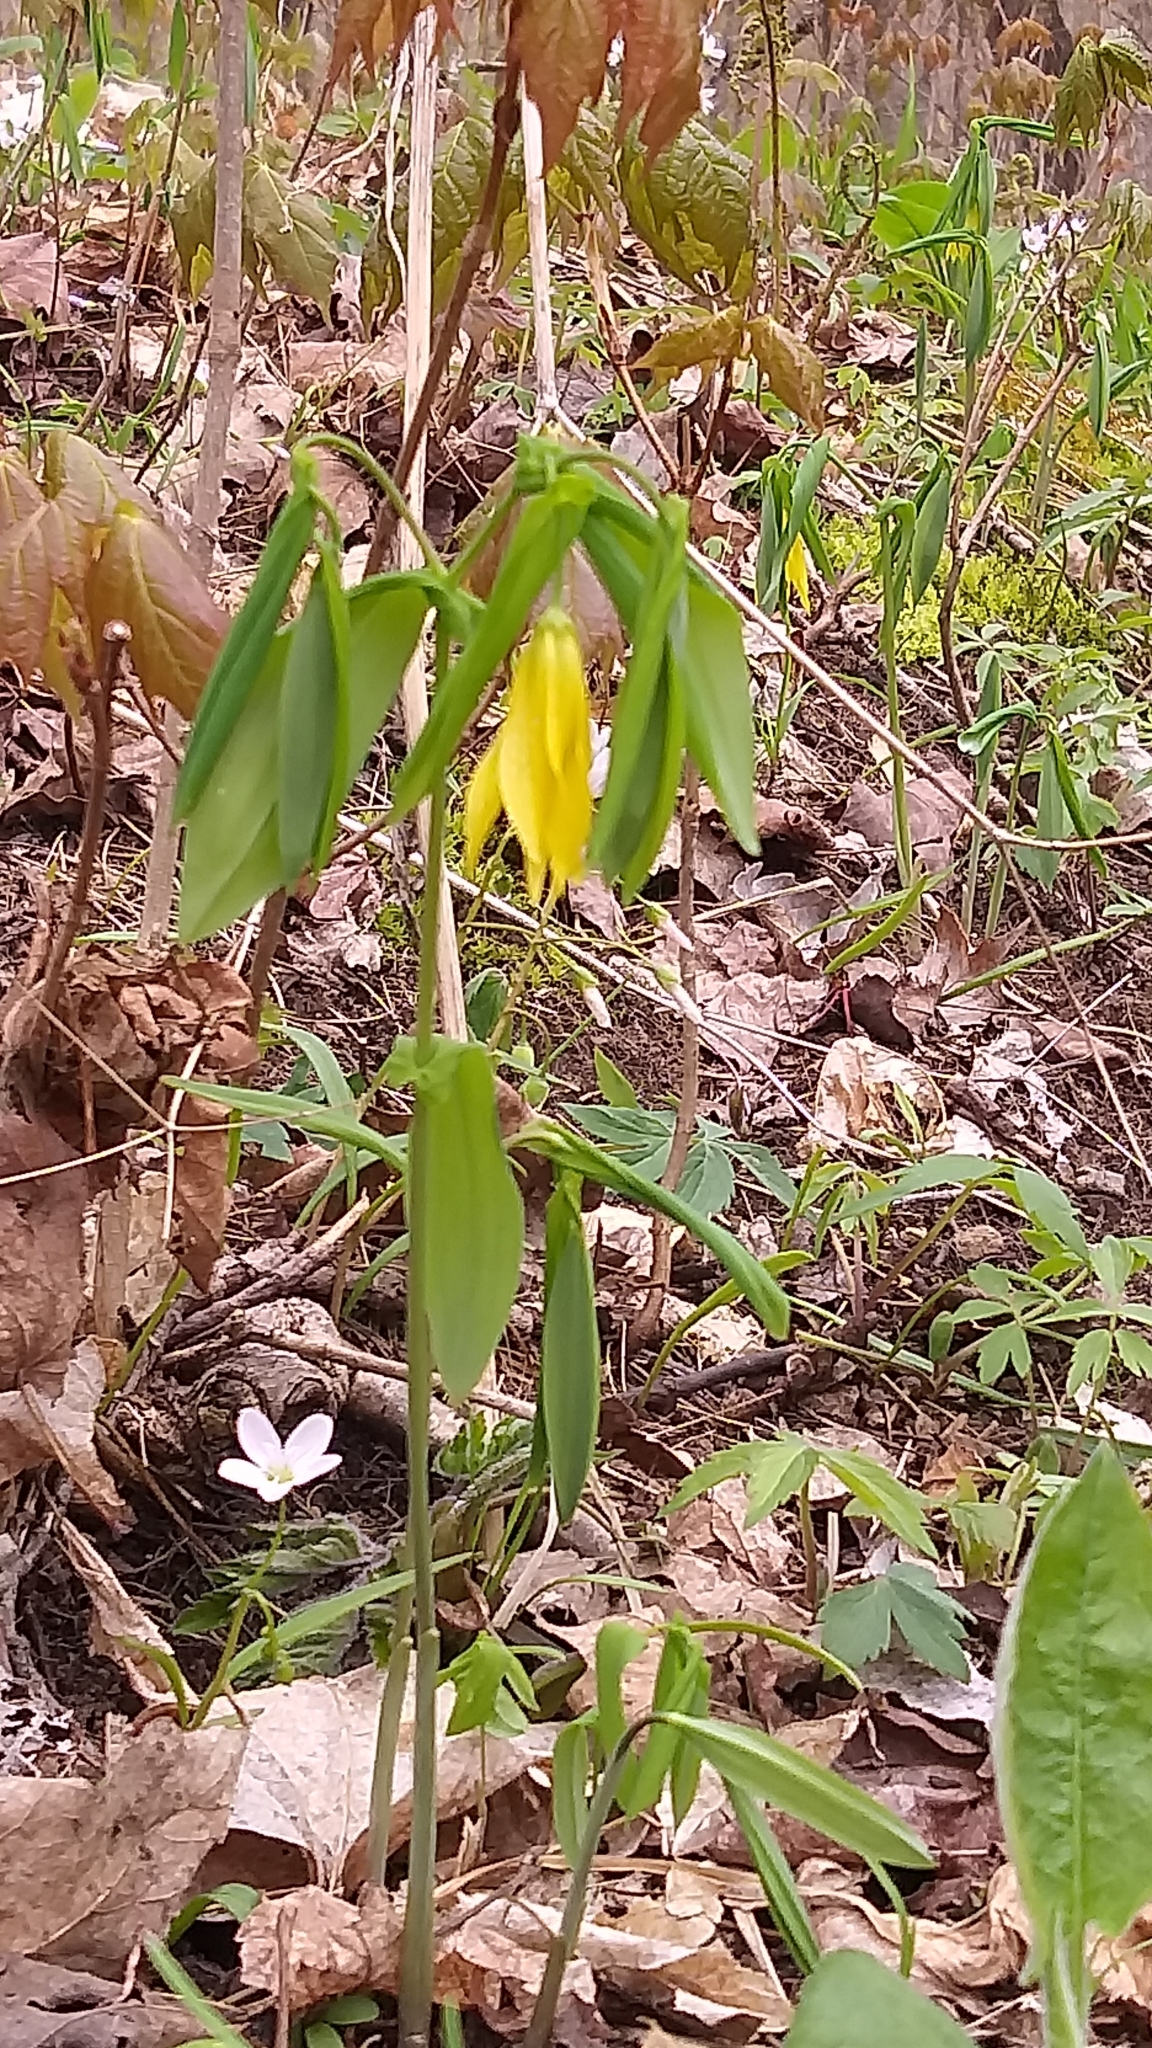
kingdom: Plantae
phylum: Tracheophyta
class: Liliopsida
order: Liliales
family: Colchicaceae
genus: Uvularia
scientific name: Uvularia grandiflora
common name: Bellwort
